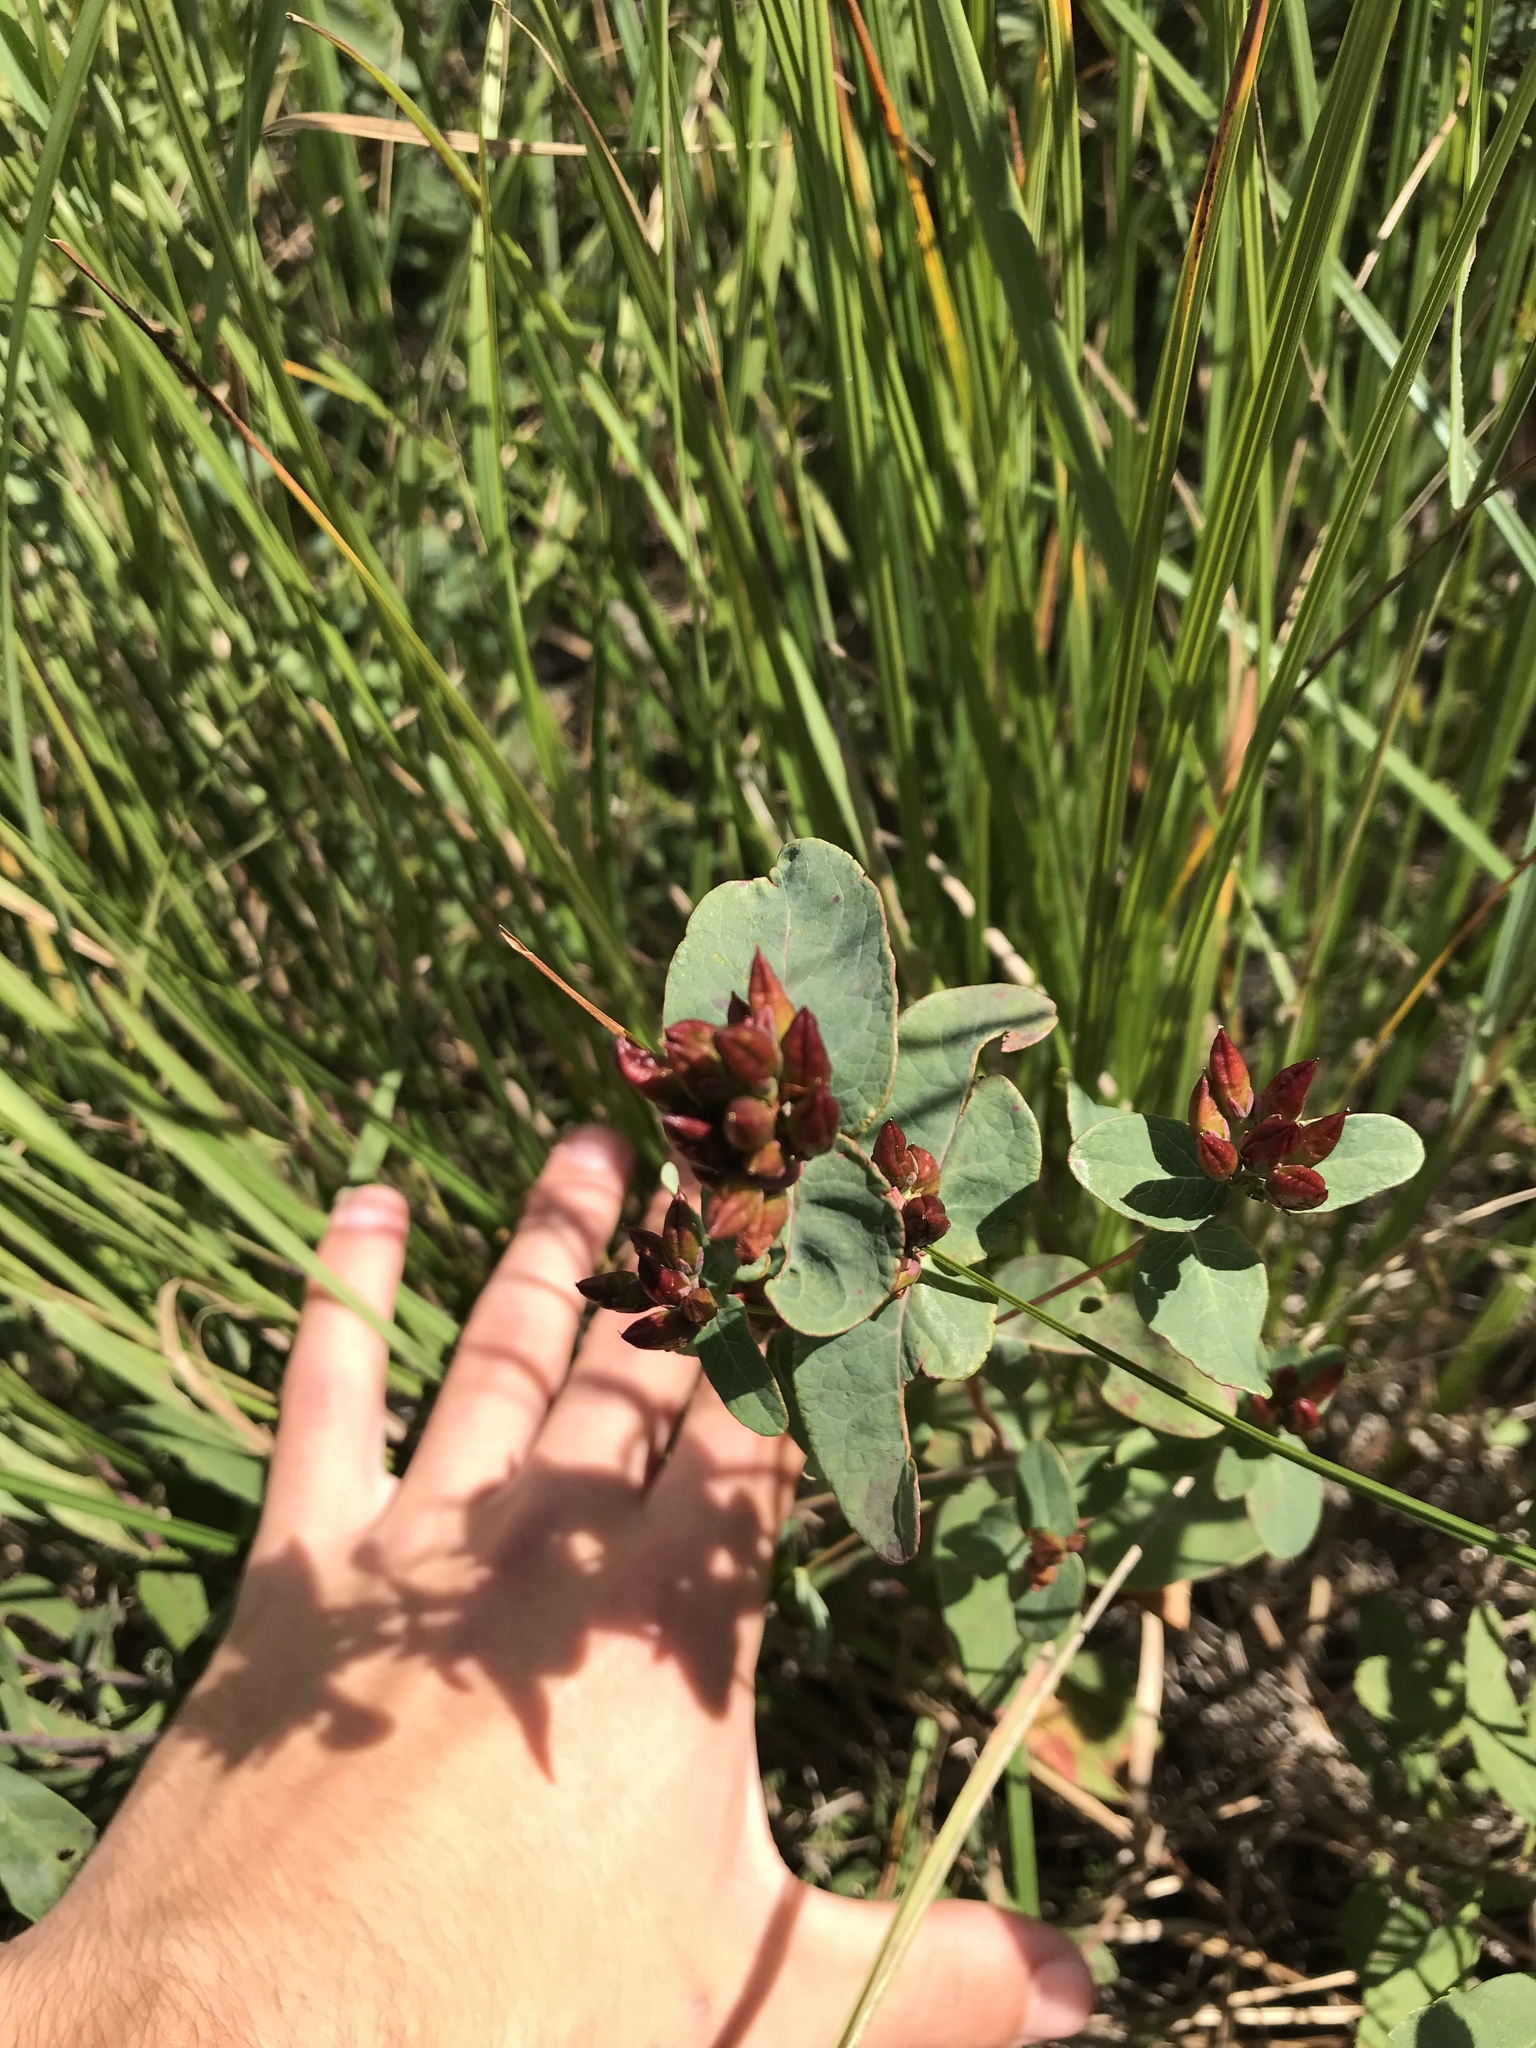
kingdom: Plantae
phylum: Tracheophyta
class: Magnoliopsida
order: Malpighiales
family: Hypericaceae
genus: Triadenum
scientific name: Triadenum fraseri
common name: Fraser's marsh st. johnswort
